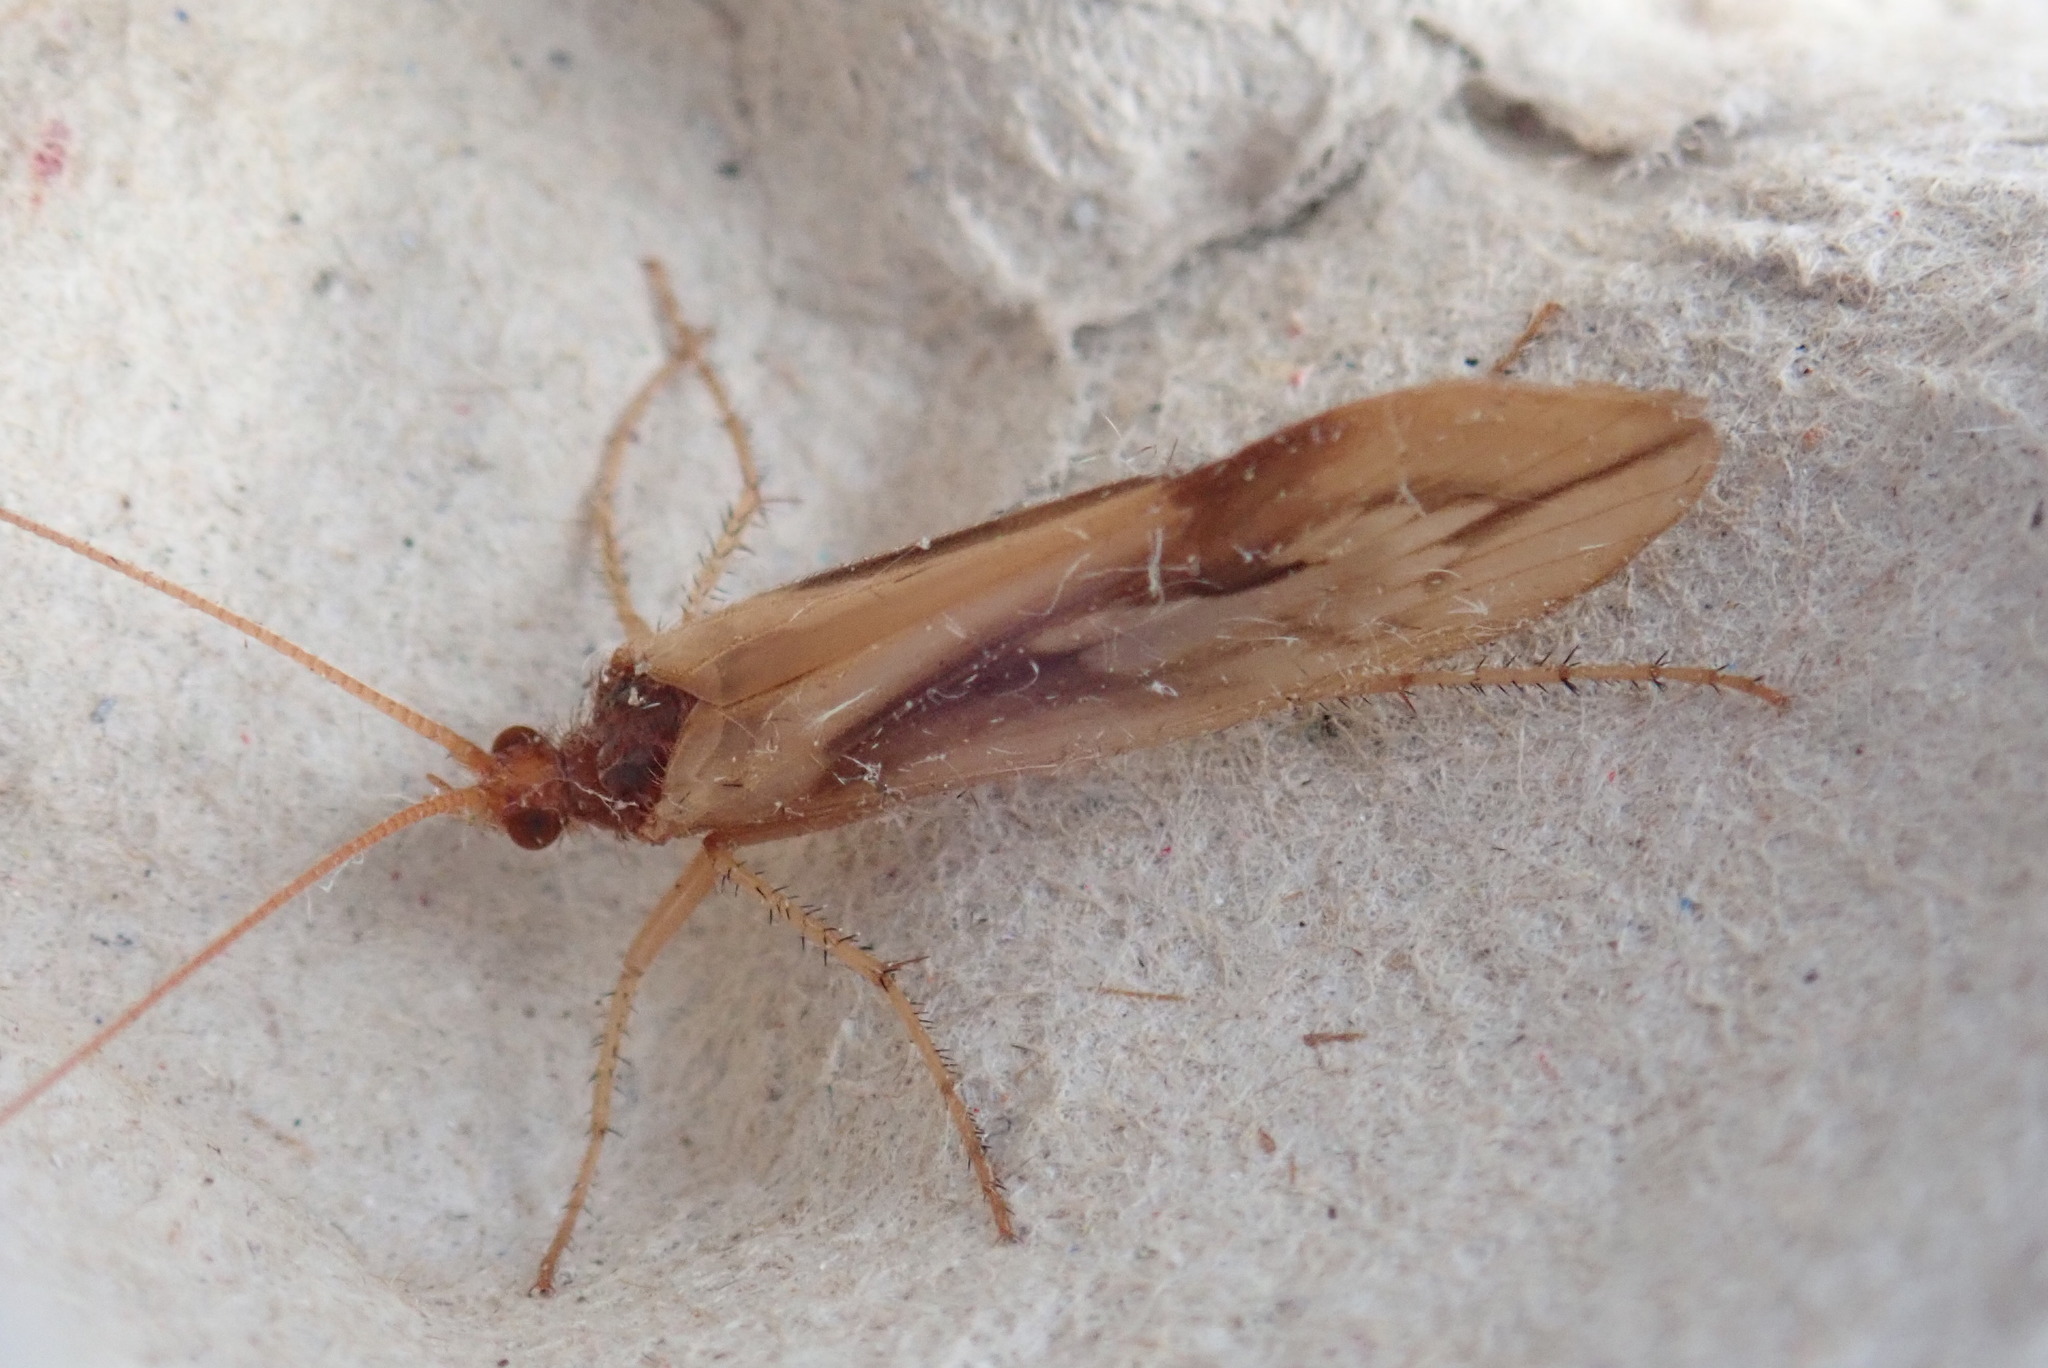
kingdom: Animalia
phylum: Arthropoda
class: Insecta
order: Trichoptera
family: Limnephilidae
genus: Platycentropus
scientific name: Platycentropus radiatus
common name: Chocolate-and-cream sedge
